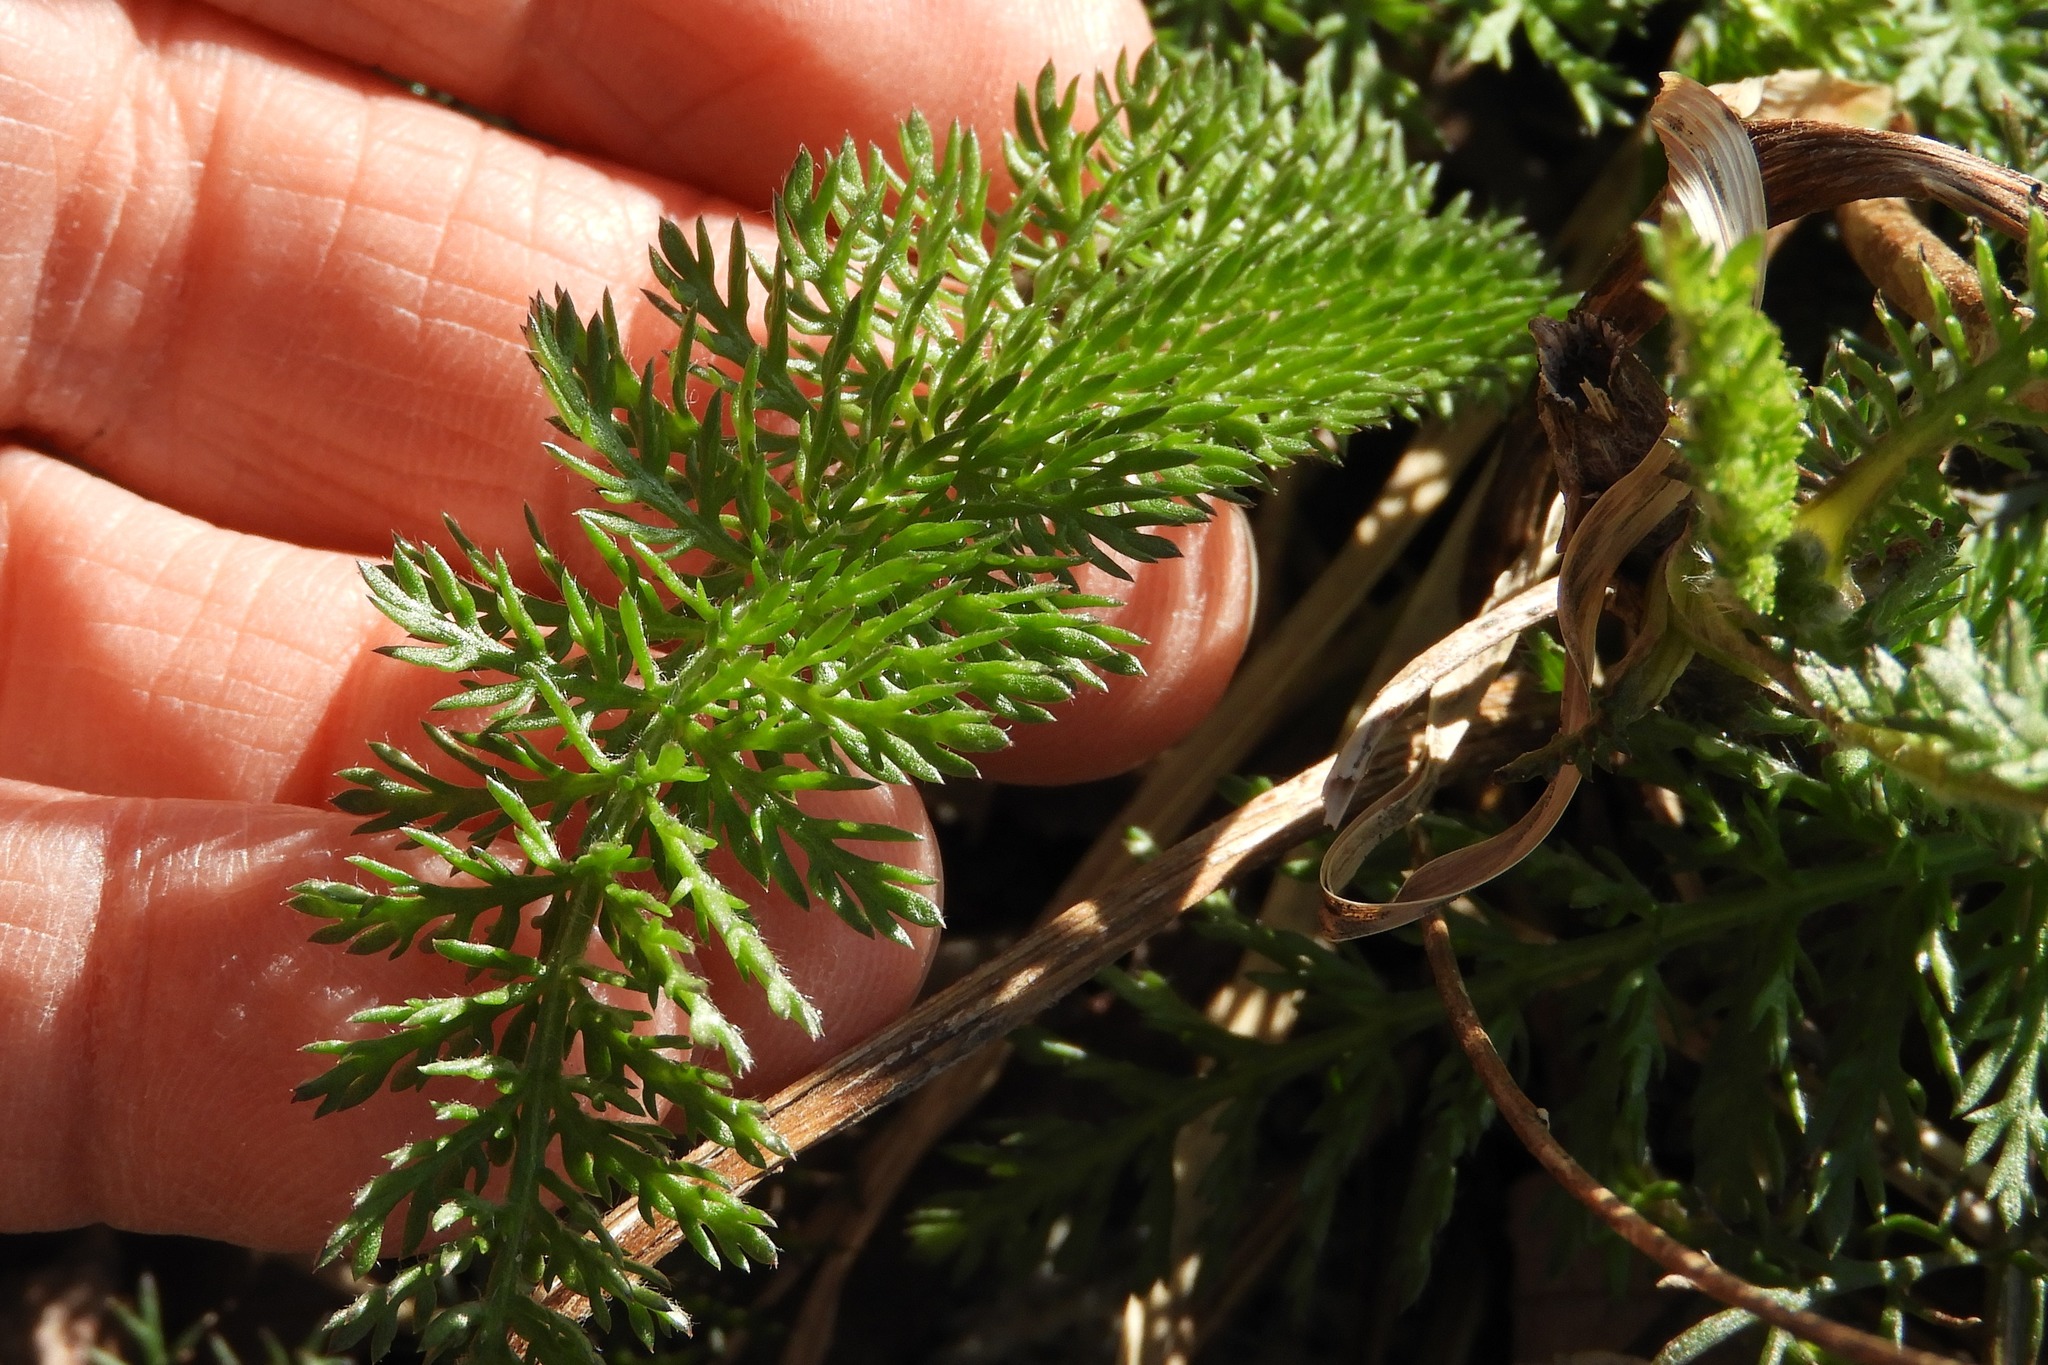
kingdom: Plantae
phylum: Tracheophyta
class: Magnoliopsida
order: Asterales
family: Asteraceae
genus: Achillea
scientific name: Achillea millefolium
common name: Yarrow
